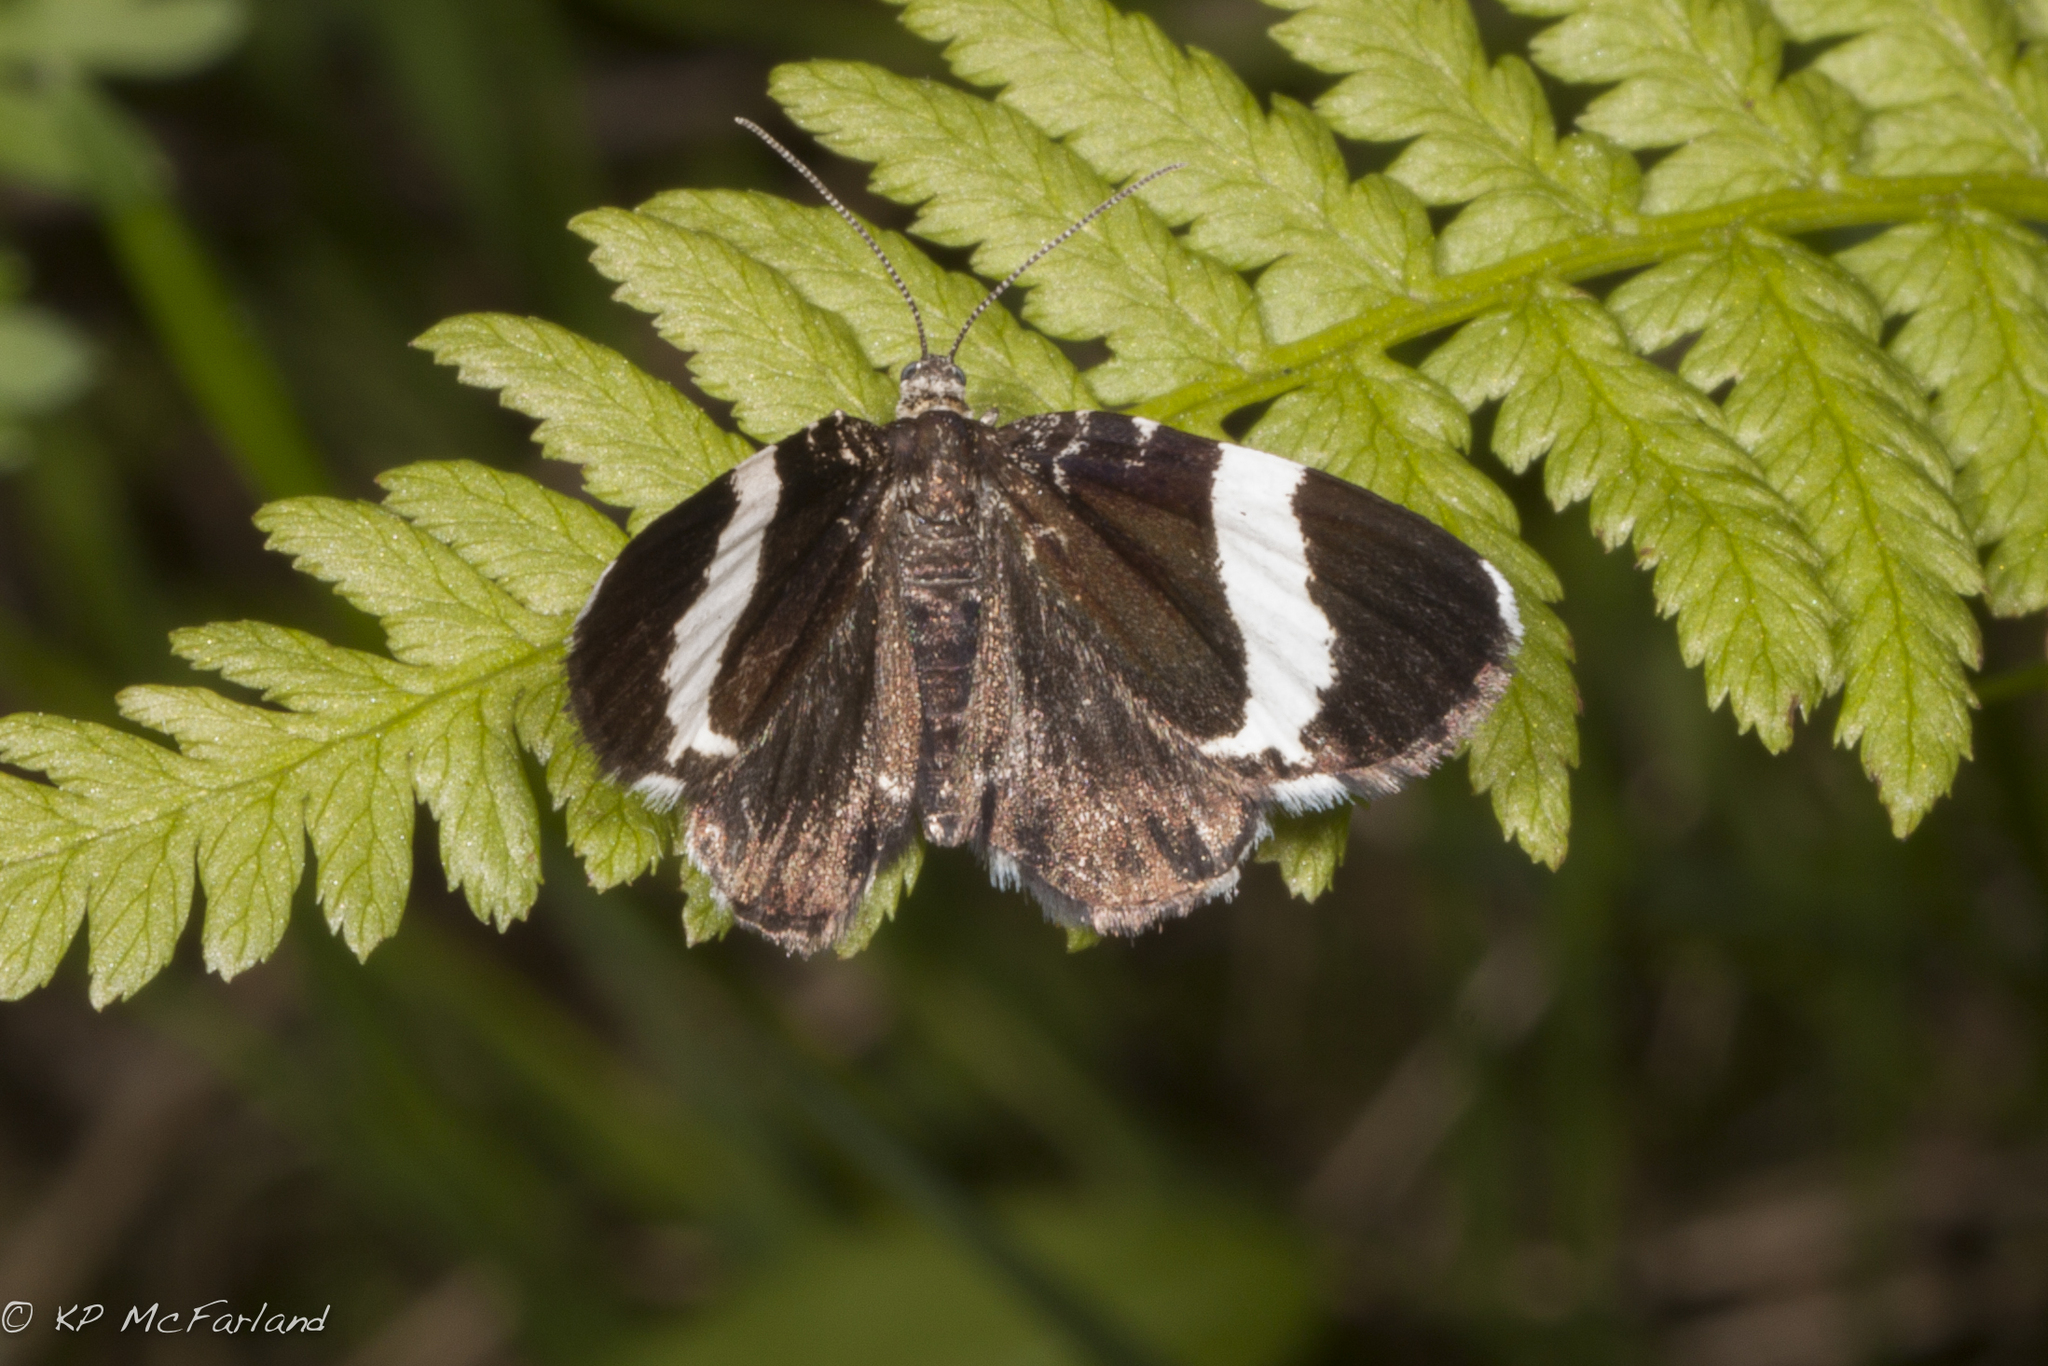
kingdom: Animalia
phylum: Arthropoda
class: Insecta
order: Lepidoptera
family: Geometridae
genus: Trichodezia
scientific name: Trichodezia albovittata
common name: White striped black
